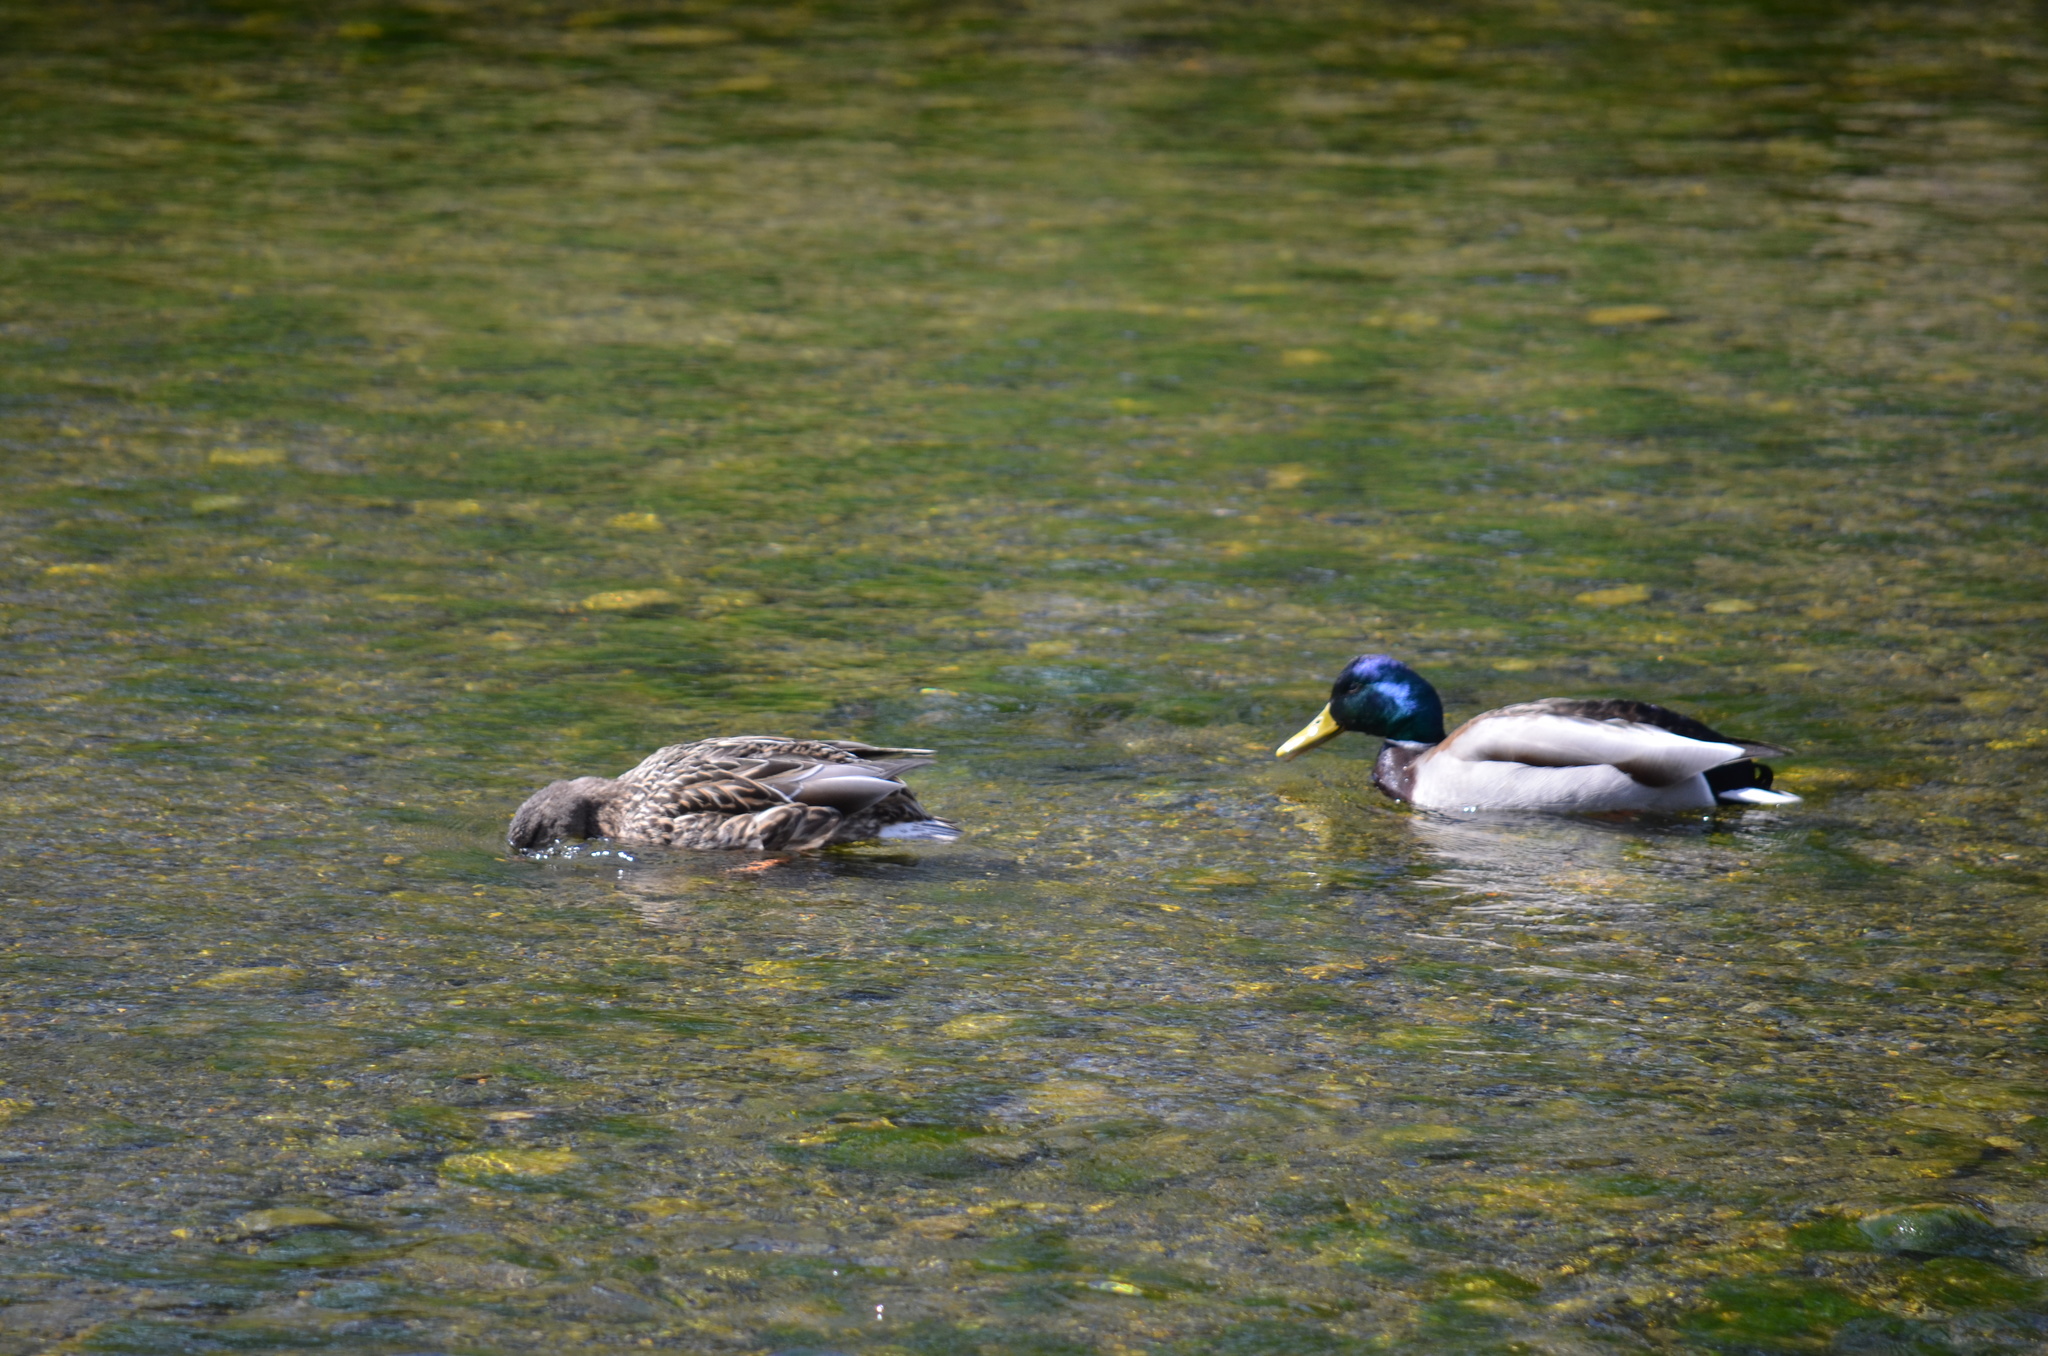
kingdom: Animalia
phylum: Chordata
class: Aves
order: Anseriformes
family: Anatidae
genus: Anas
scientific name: Anas platyrhynchos
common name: Mallard
